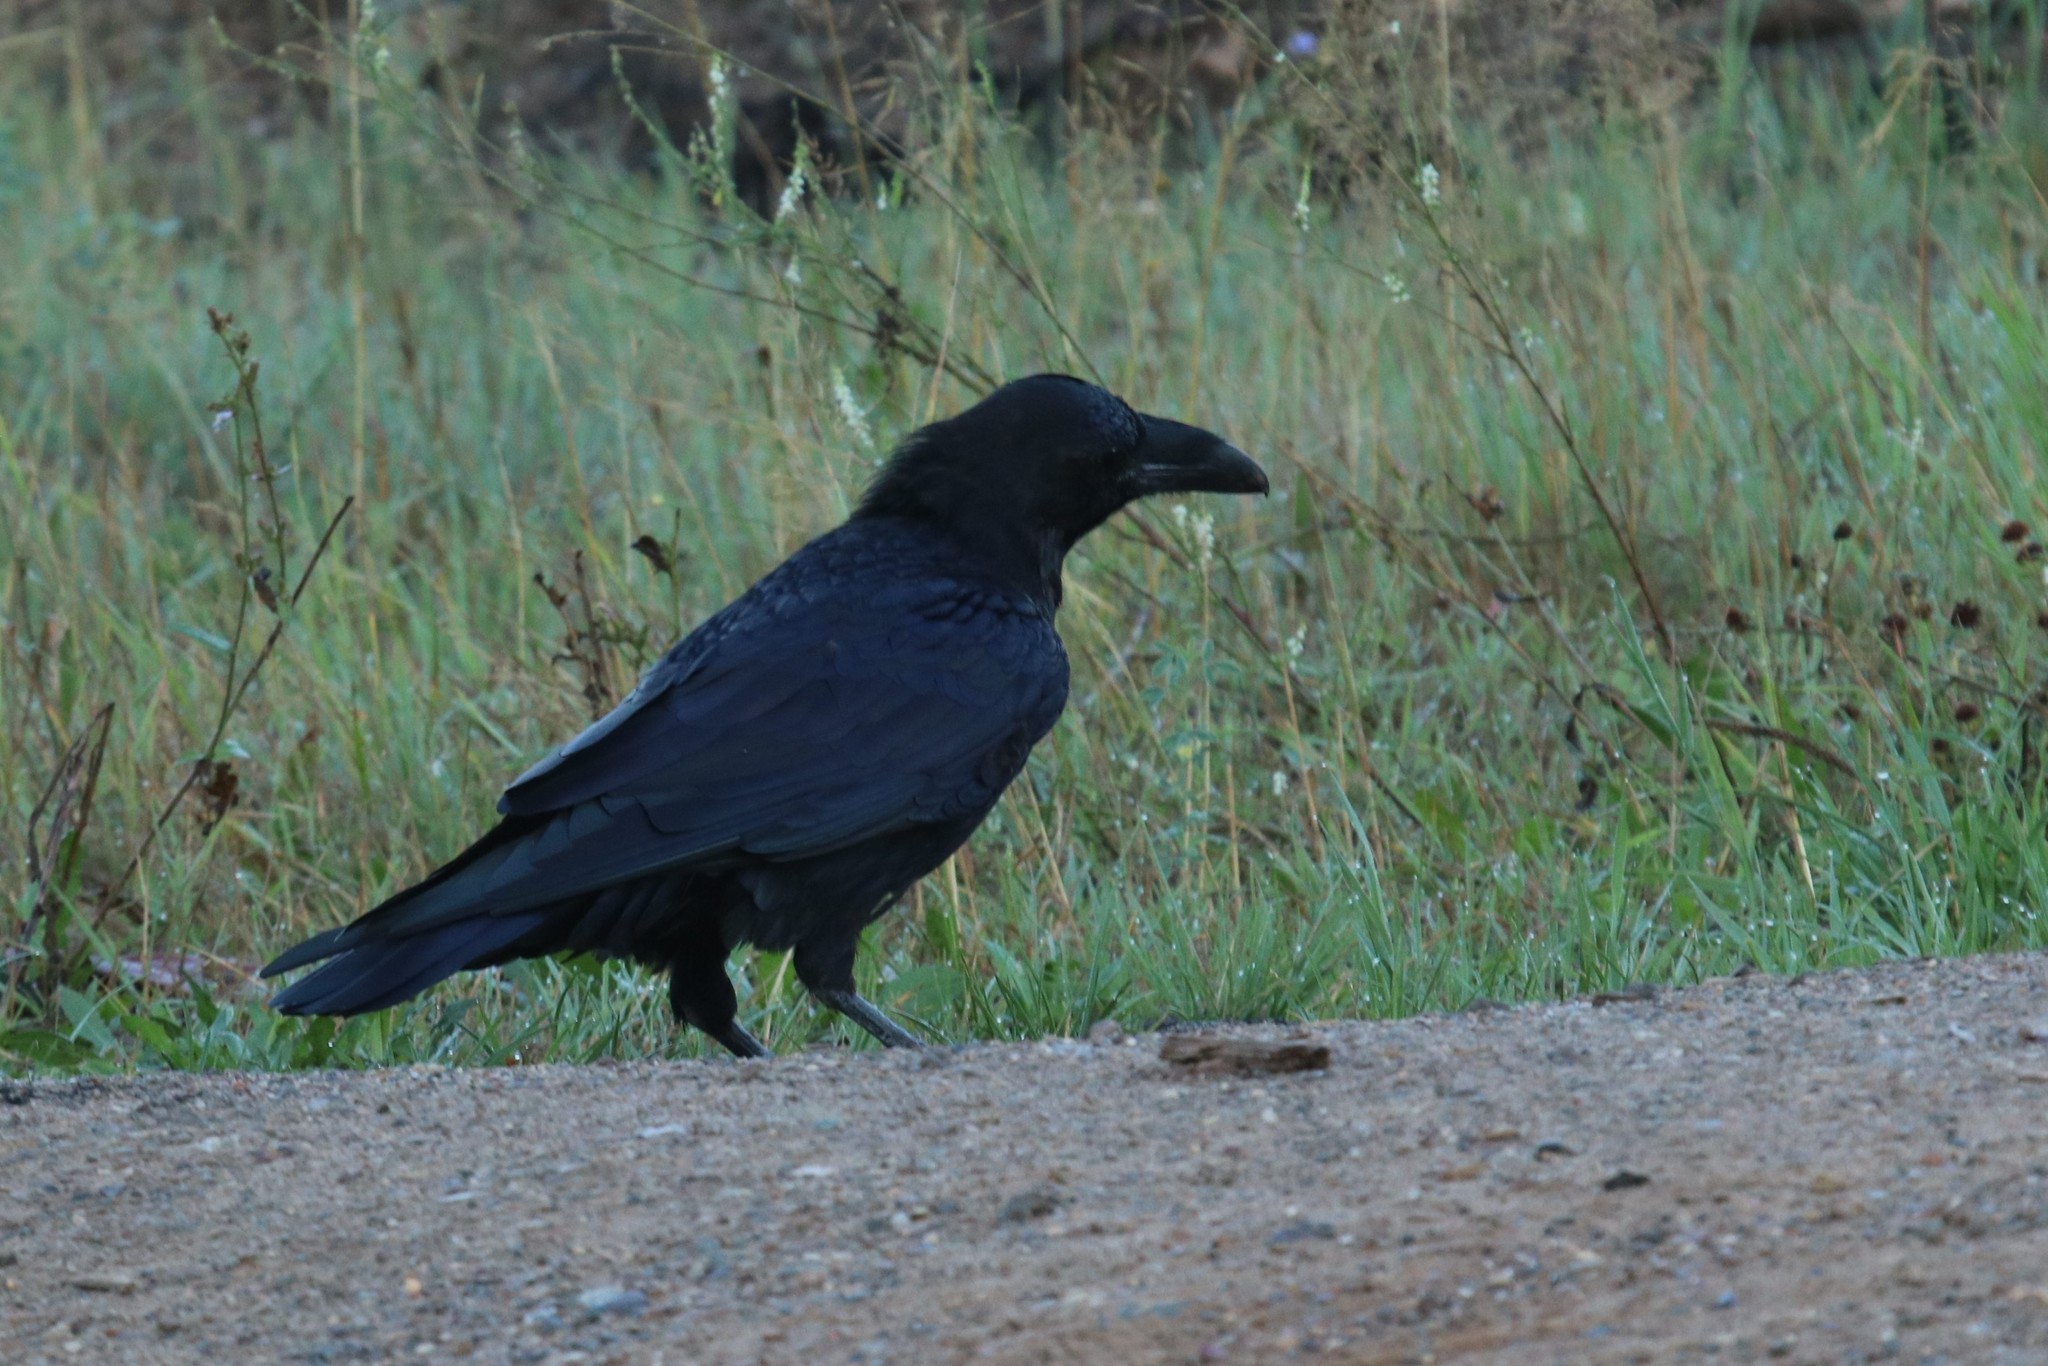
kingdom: Animalia
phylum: Chordata
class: Aves
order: Passeriformes
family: Corvidae
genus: Corvus
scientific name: Corvus corax
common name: Common raven
